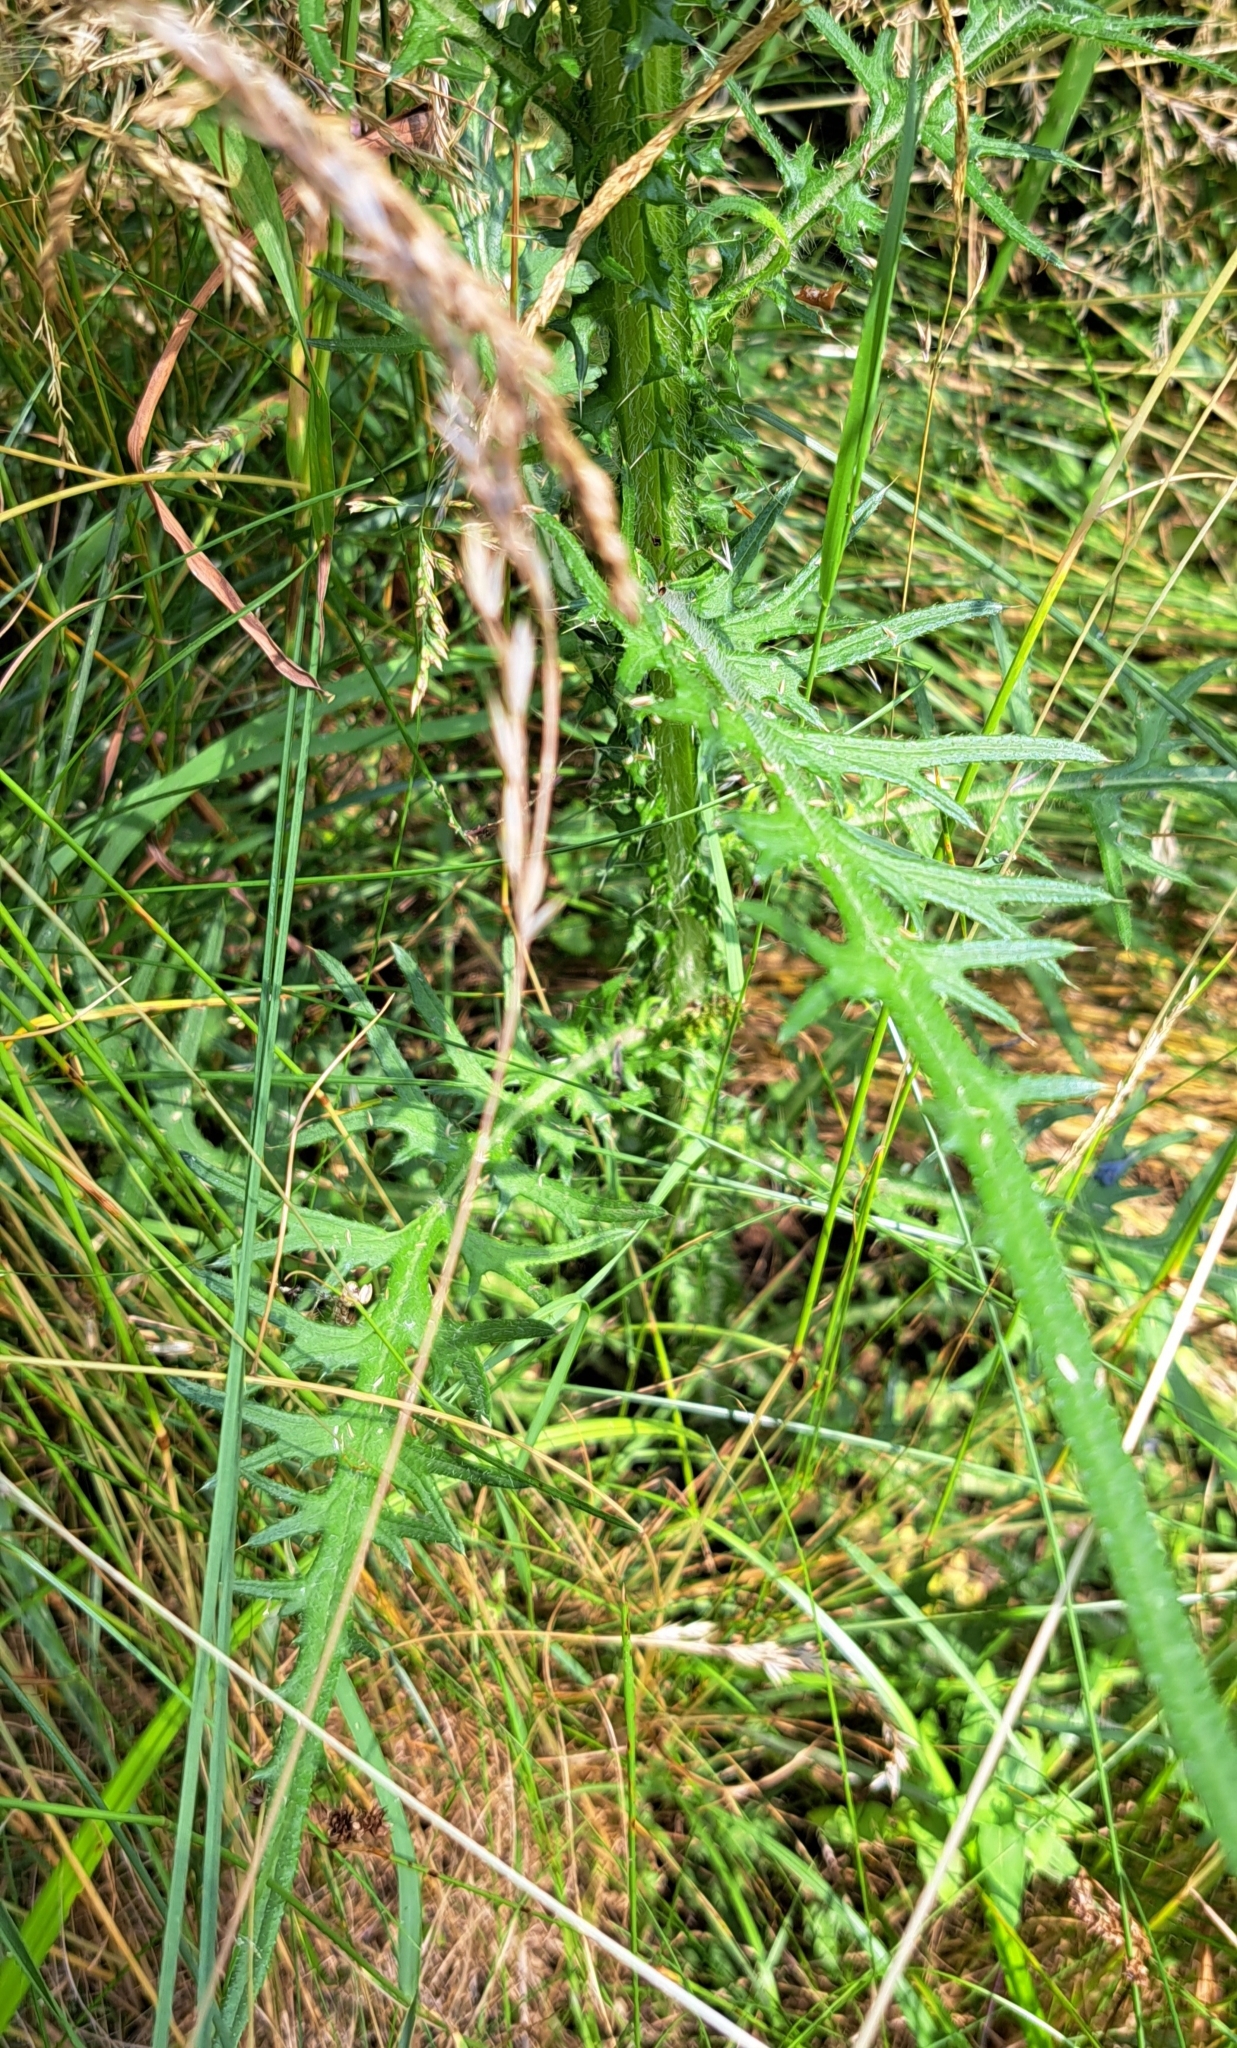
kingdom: Plantae
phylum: Tracheophyta
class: Magnoliopsida
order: Asterales
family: Asteraceae
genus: Cirsium
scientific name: Cirsium palustre
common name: Marsh thistle
